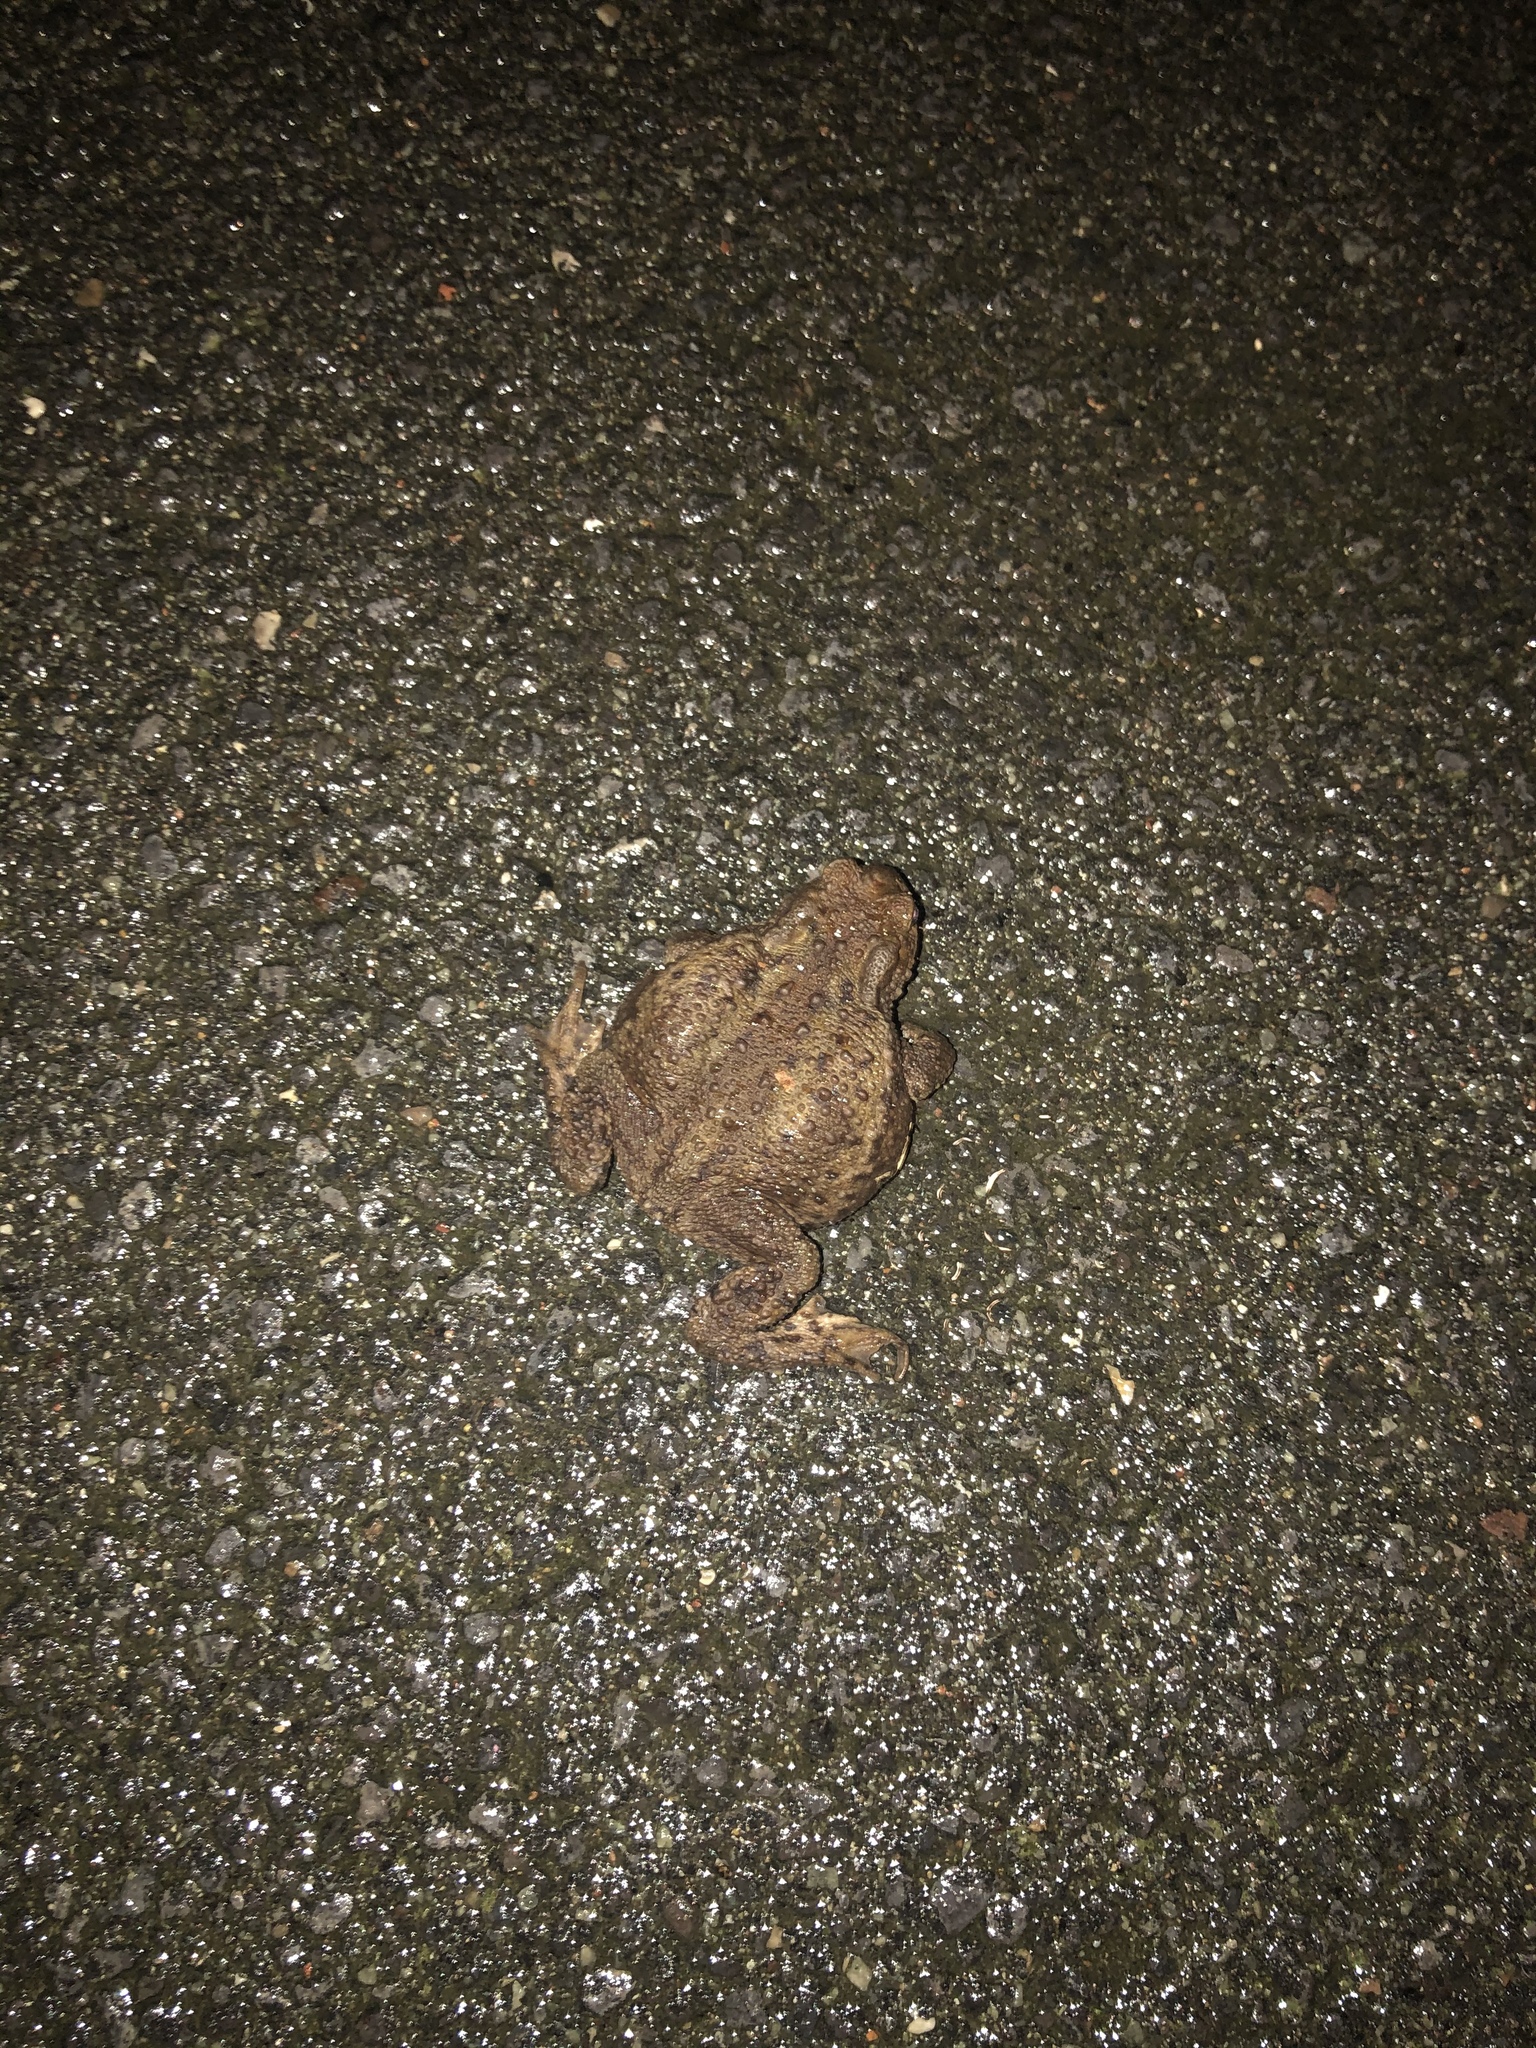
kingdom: Animalia
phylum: Chordata
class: Amphibia
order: Anura
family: Bufonidae
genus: Bufo
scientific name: Bufo bufo
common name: Common toad
